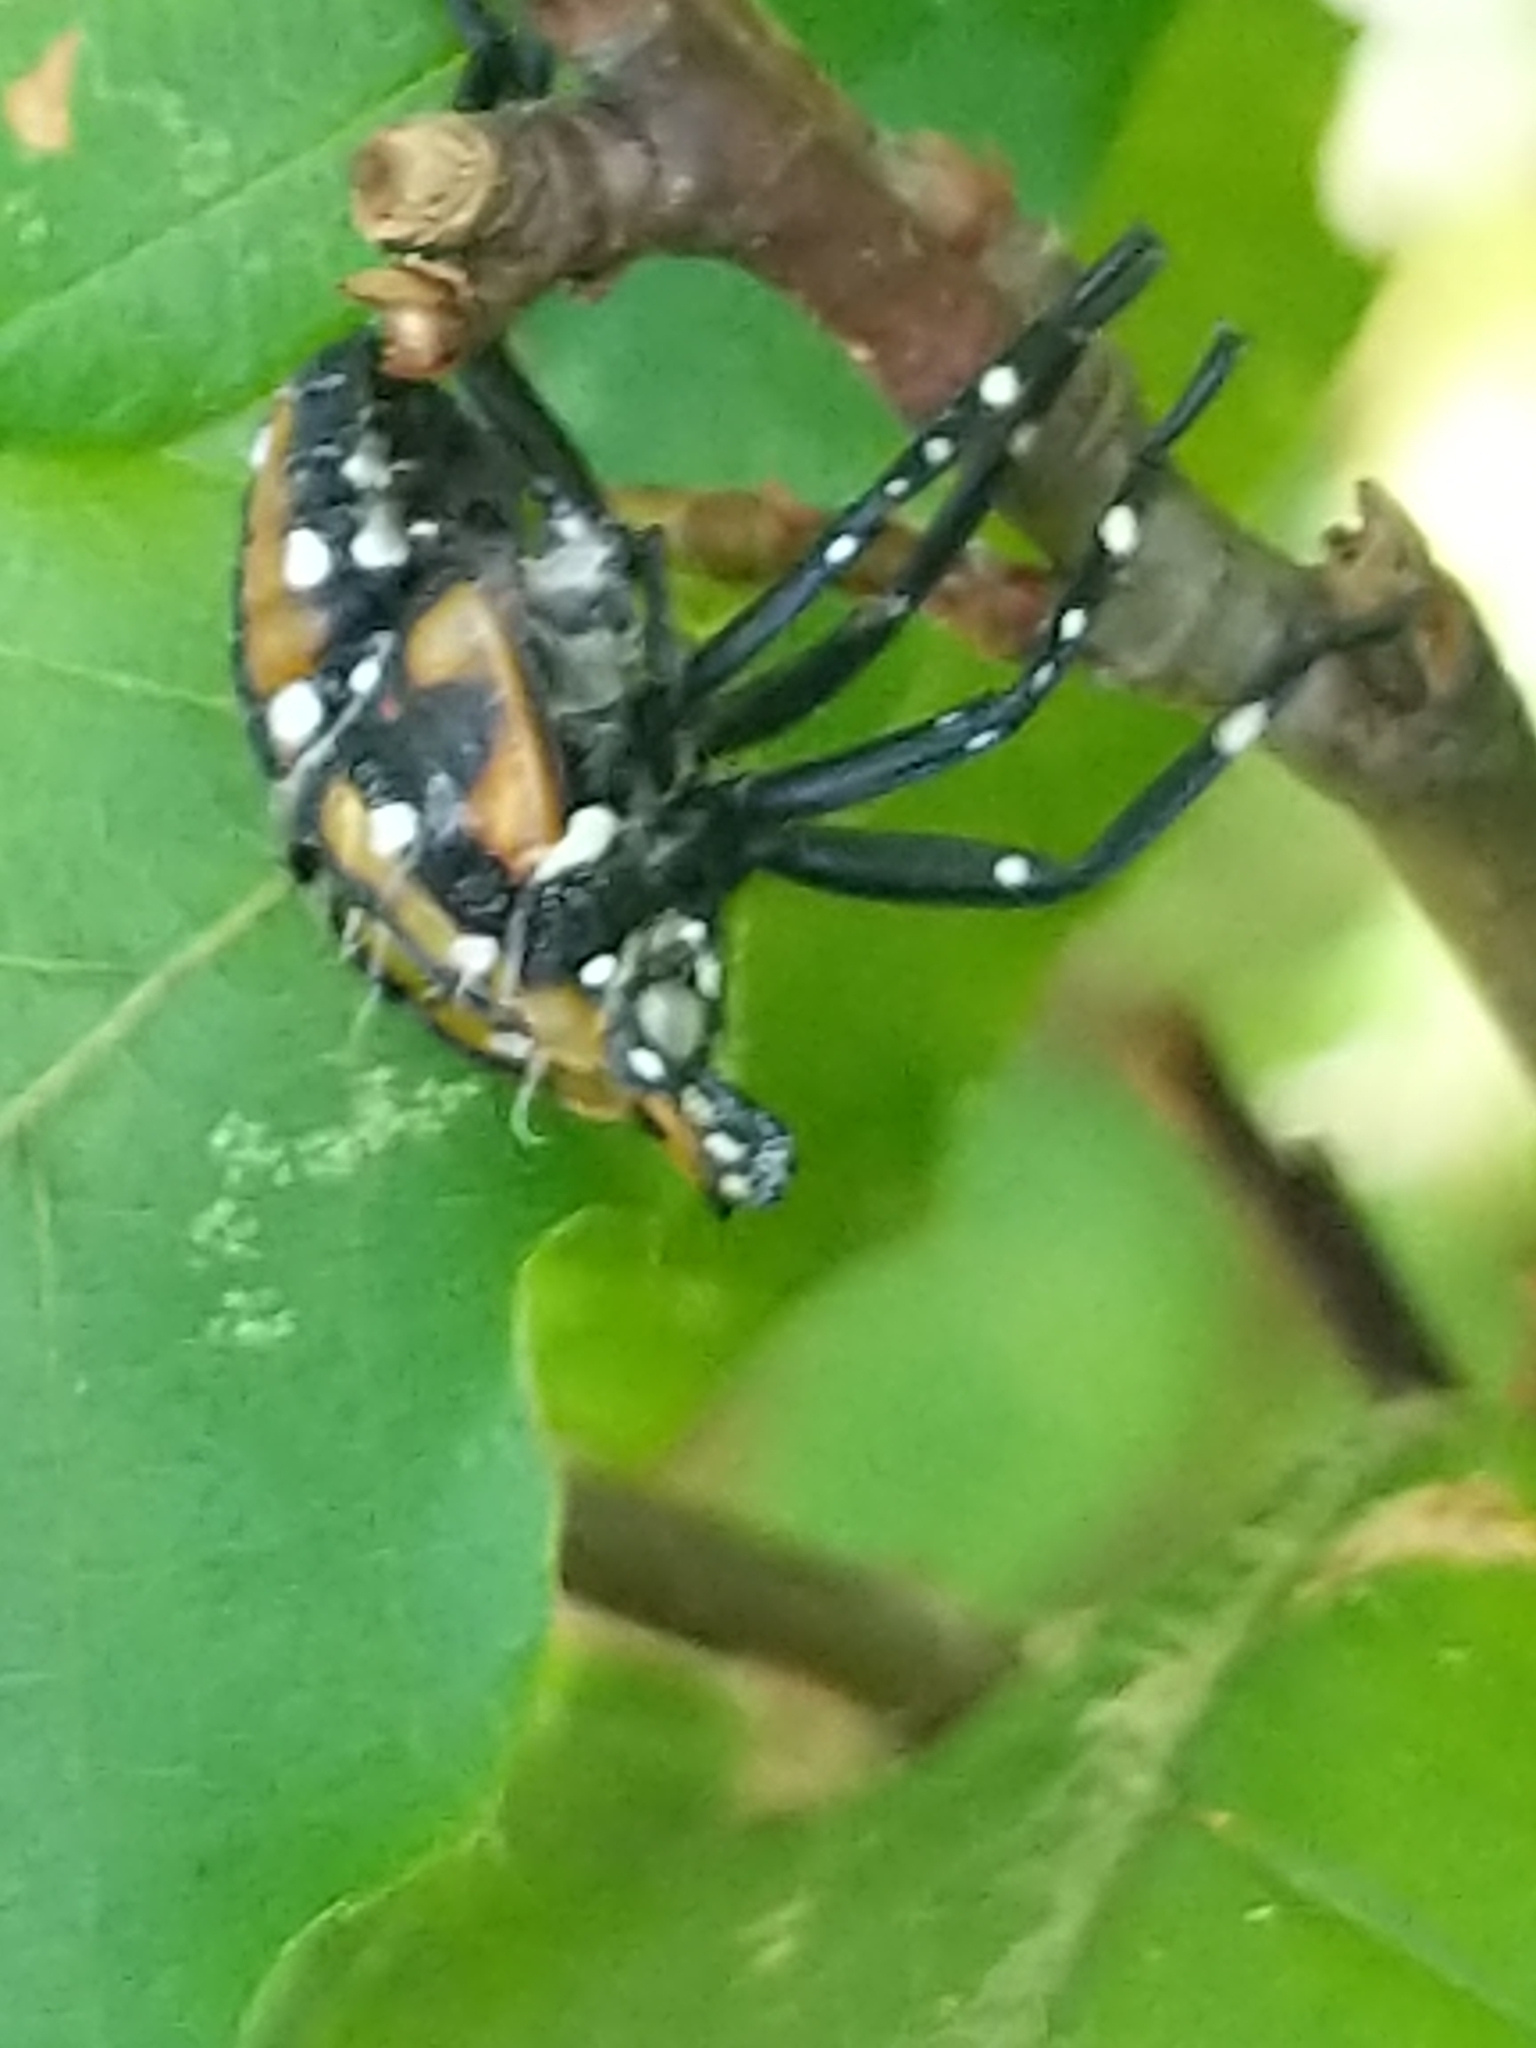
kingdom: Animalia
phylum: Arthropoda
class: Insecta
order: Hemiptera
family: Fulgoridae
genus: Lycorma
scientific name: Lycorma delicatula
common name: Spotted lanternfly
